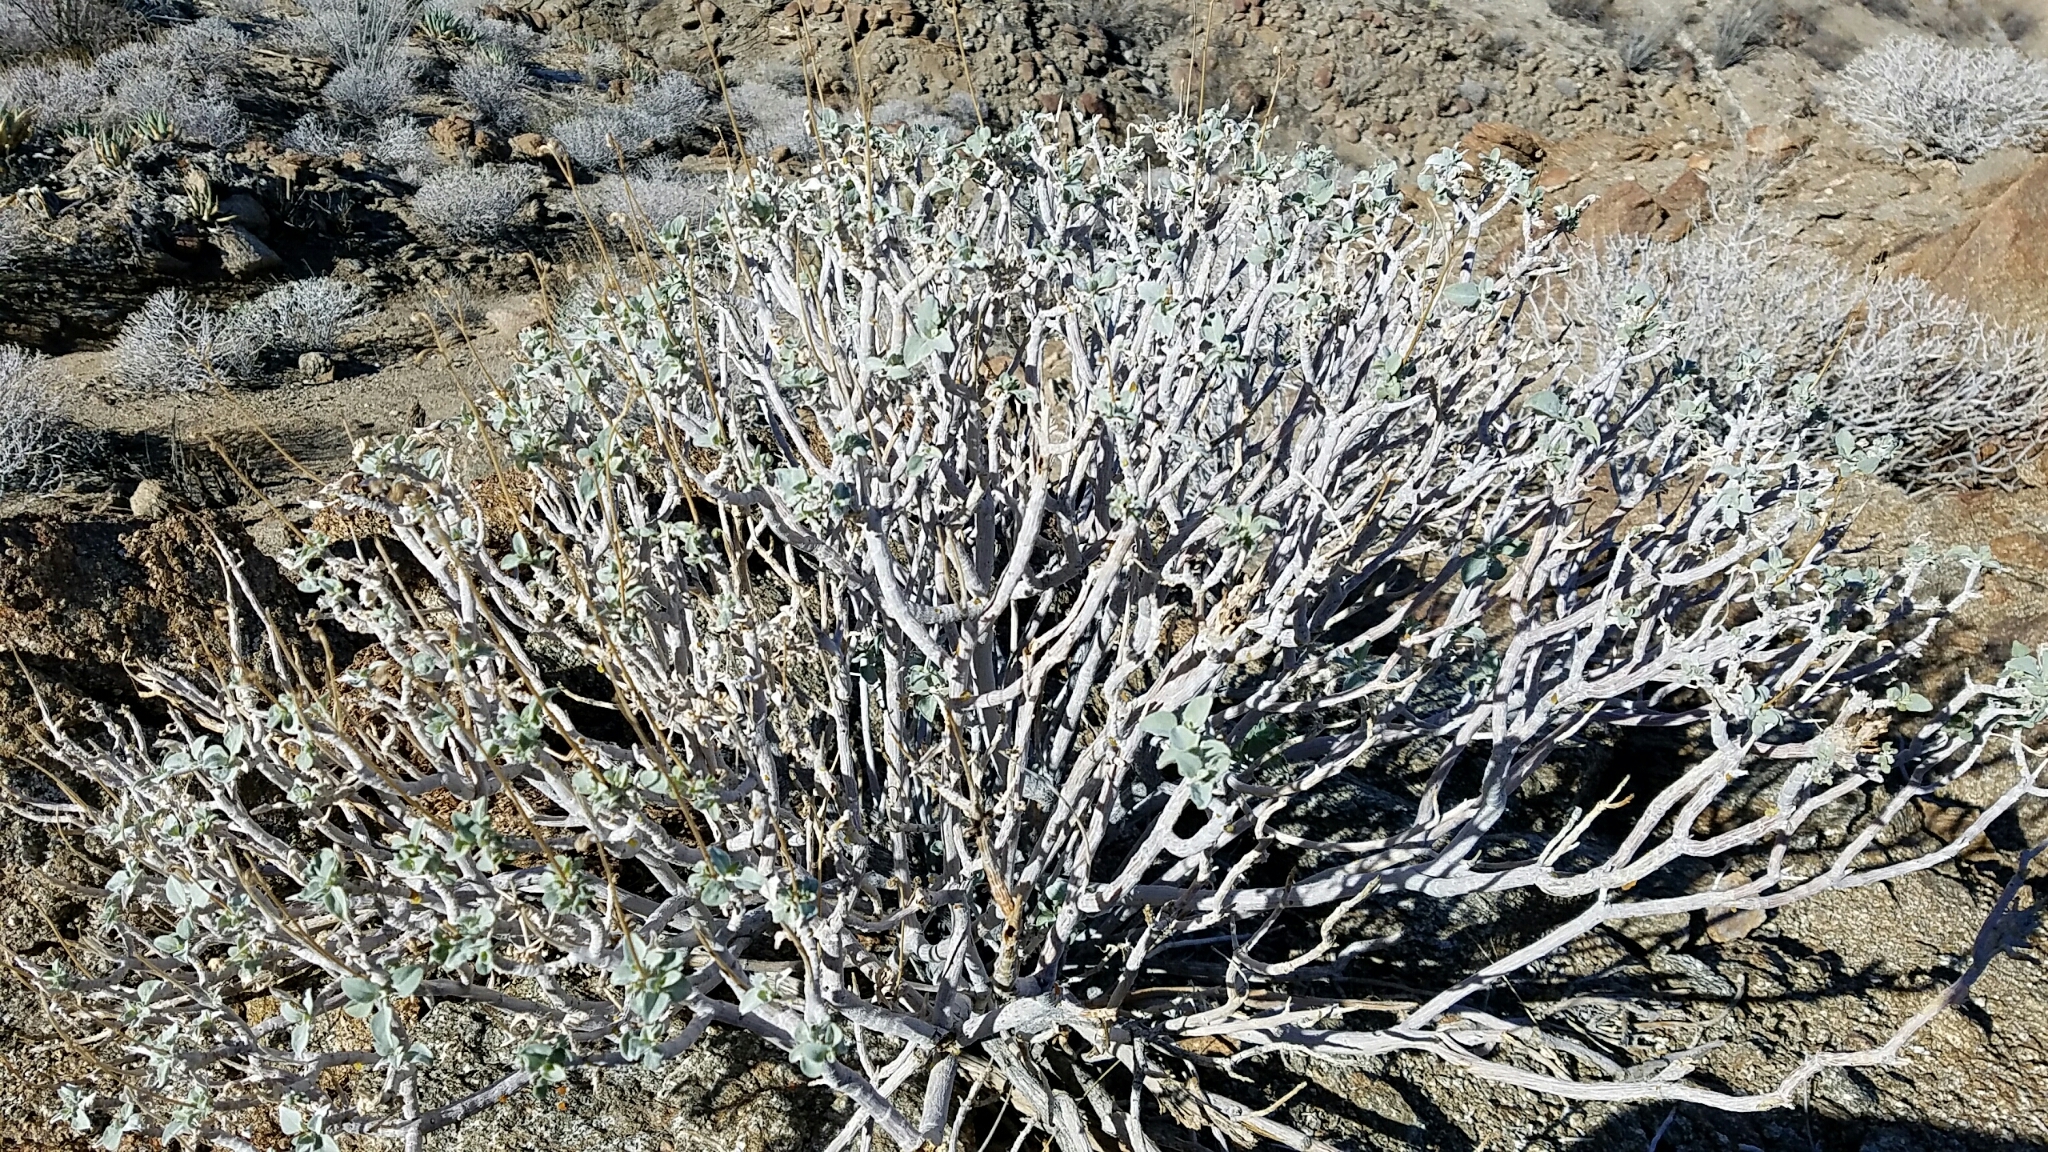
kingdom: Plantae
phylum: Tracheophyta
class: Magnoliopsida
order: Asterales
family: Asteraceae
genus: Encelia
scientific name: Encelia farinosa
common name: Brittlebush
